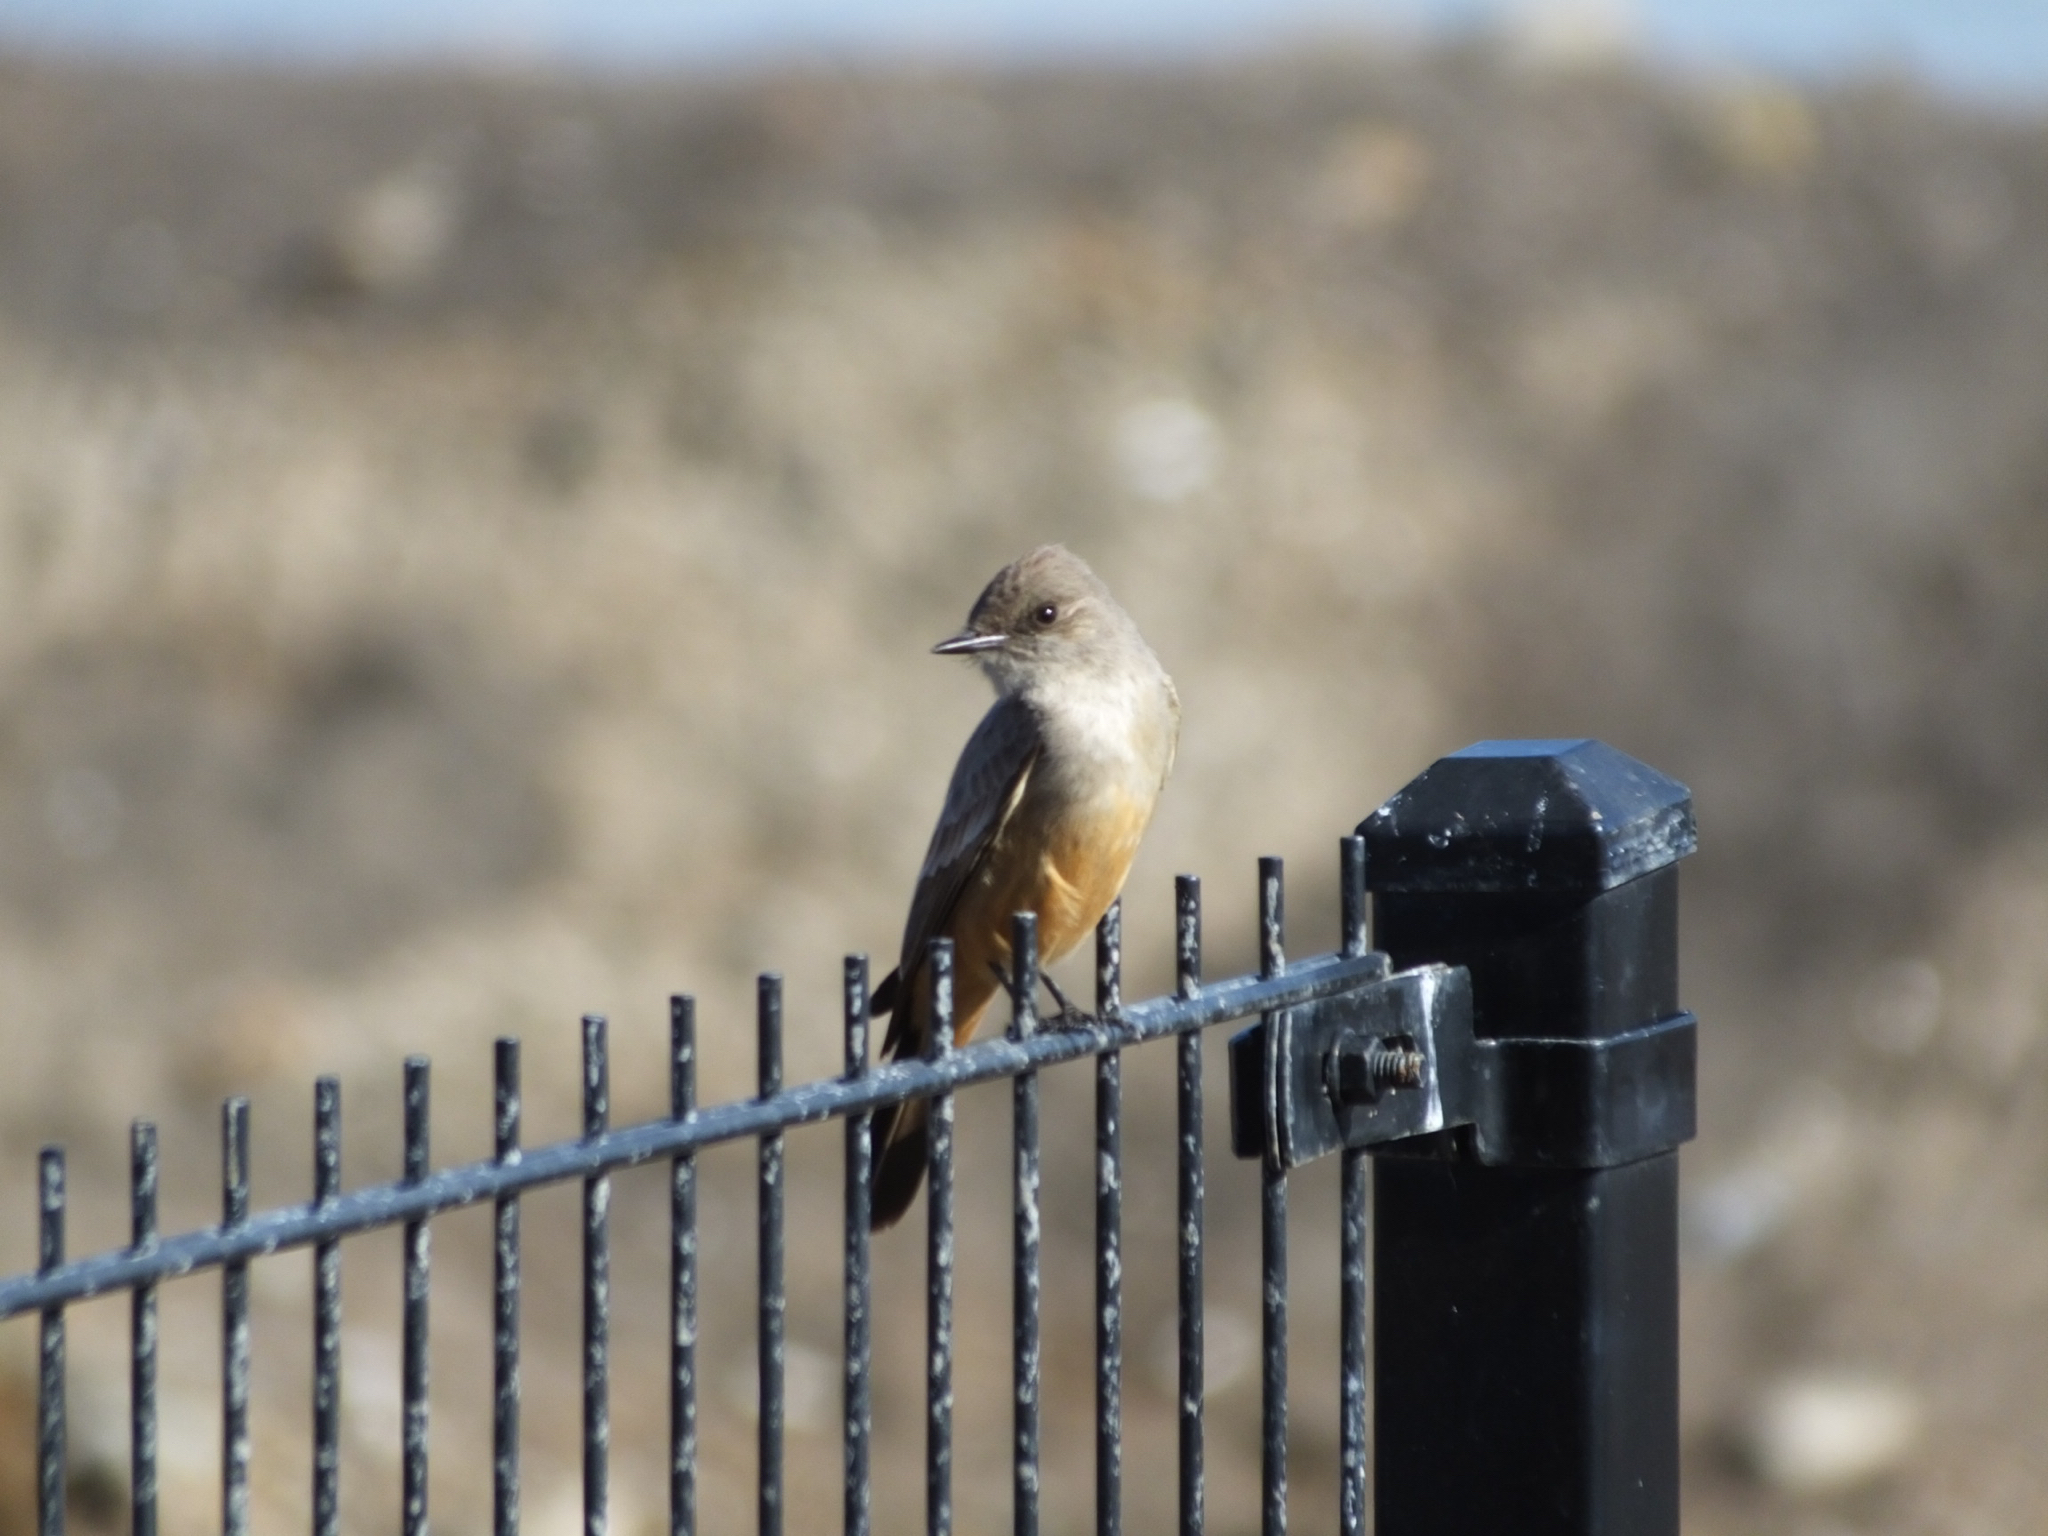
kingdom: Animalia
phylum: Chordata
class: Aves
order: Passeriformes
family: Tyrannidae
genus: Sayornis
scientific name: Sayornis saya
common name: Say's phoebe
